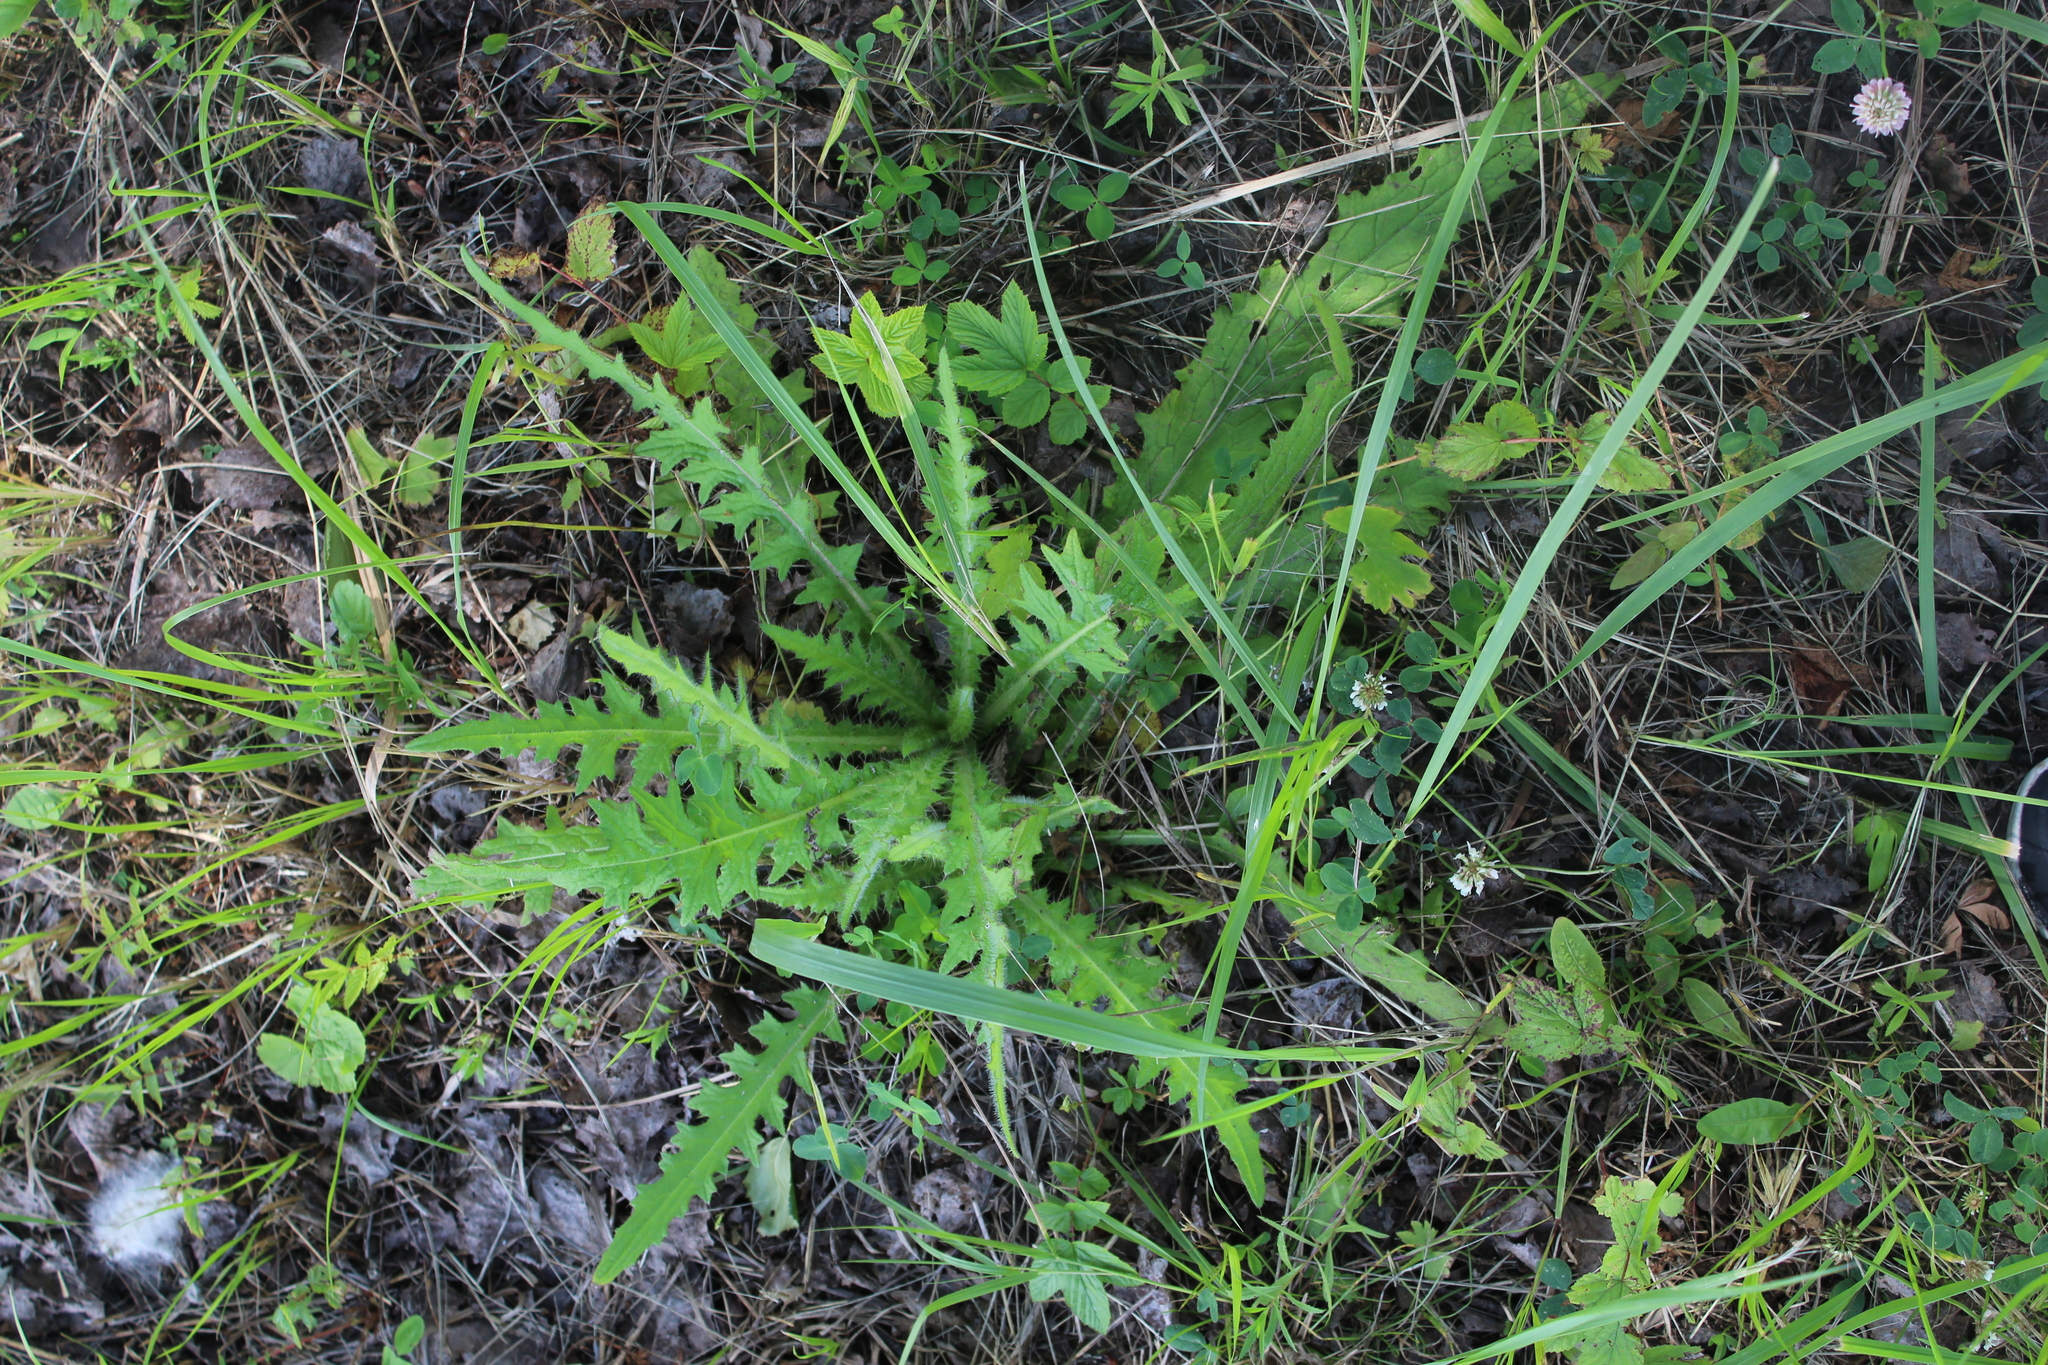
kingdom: Plantae
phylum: Tracheophyta
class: Magnoliopsida
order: Asterales
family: Asteraceae
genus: Cirsium
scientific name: Cirsium palustre
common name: Marsh thistle
